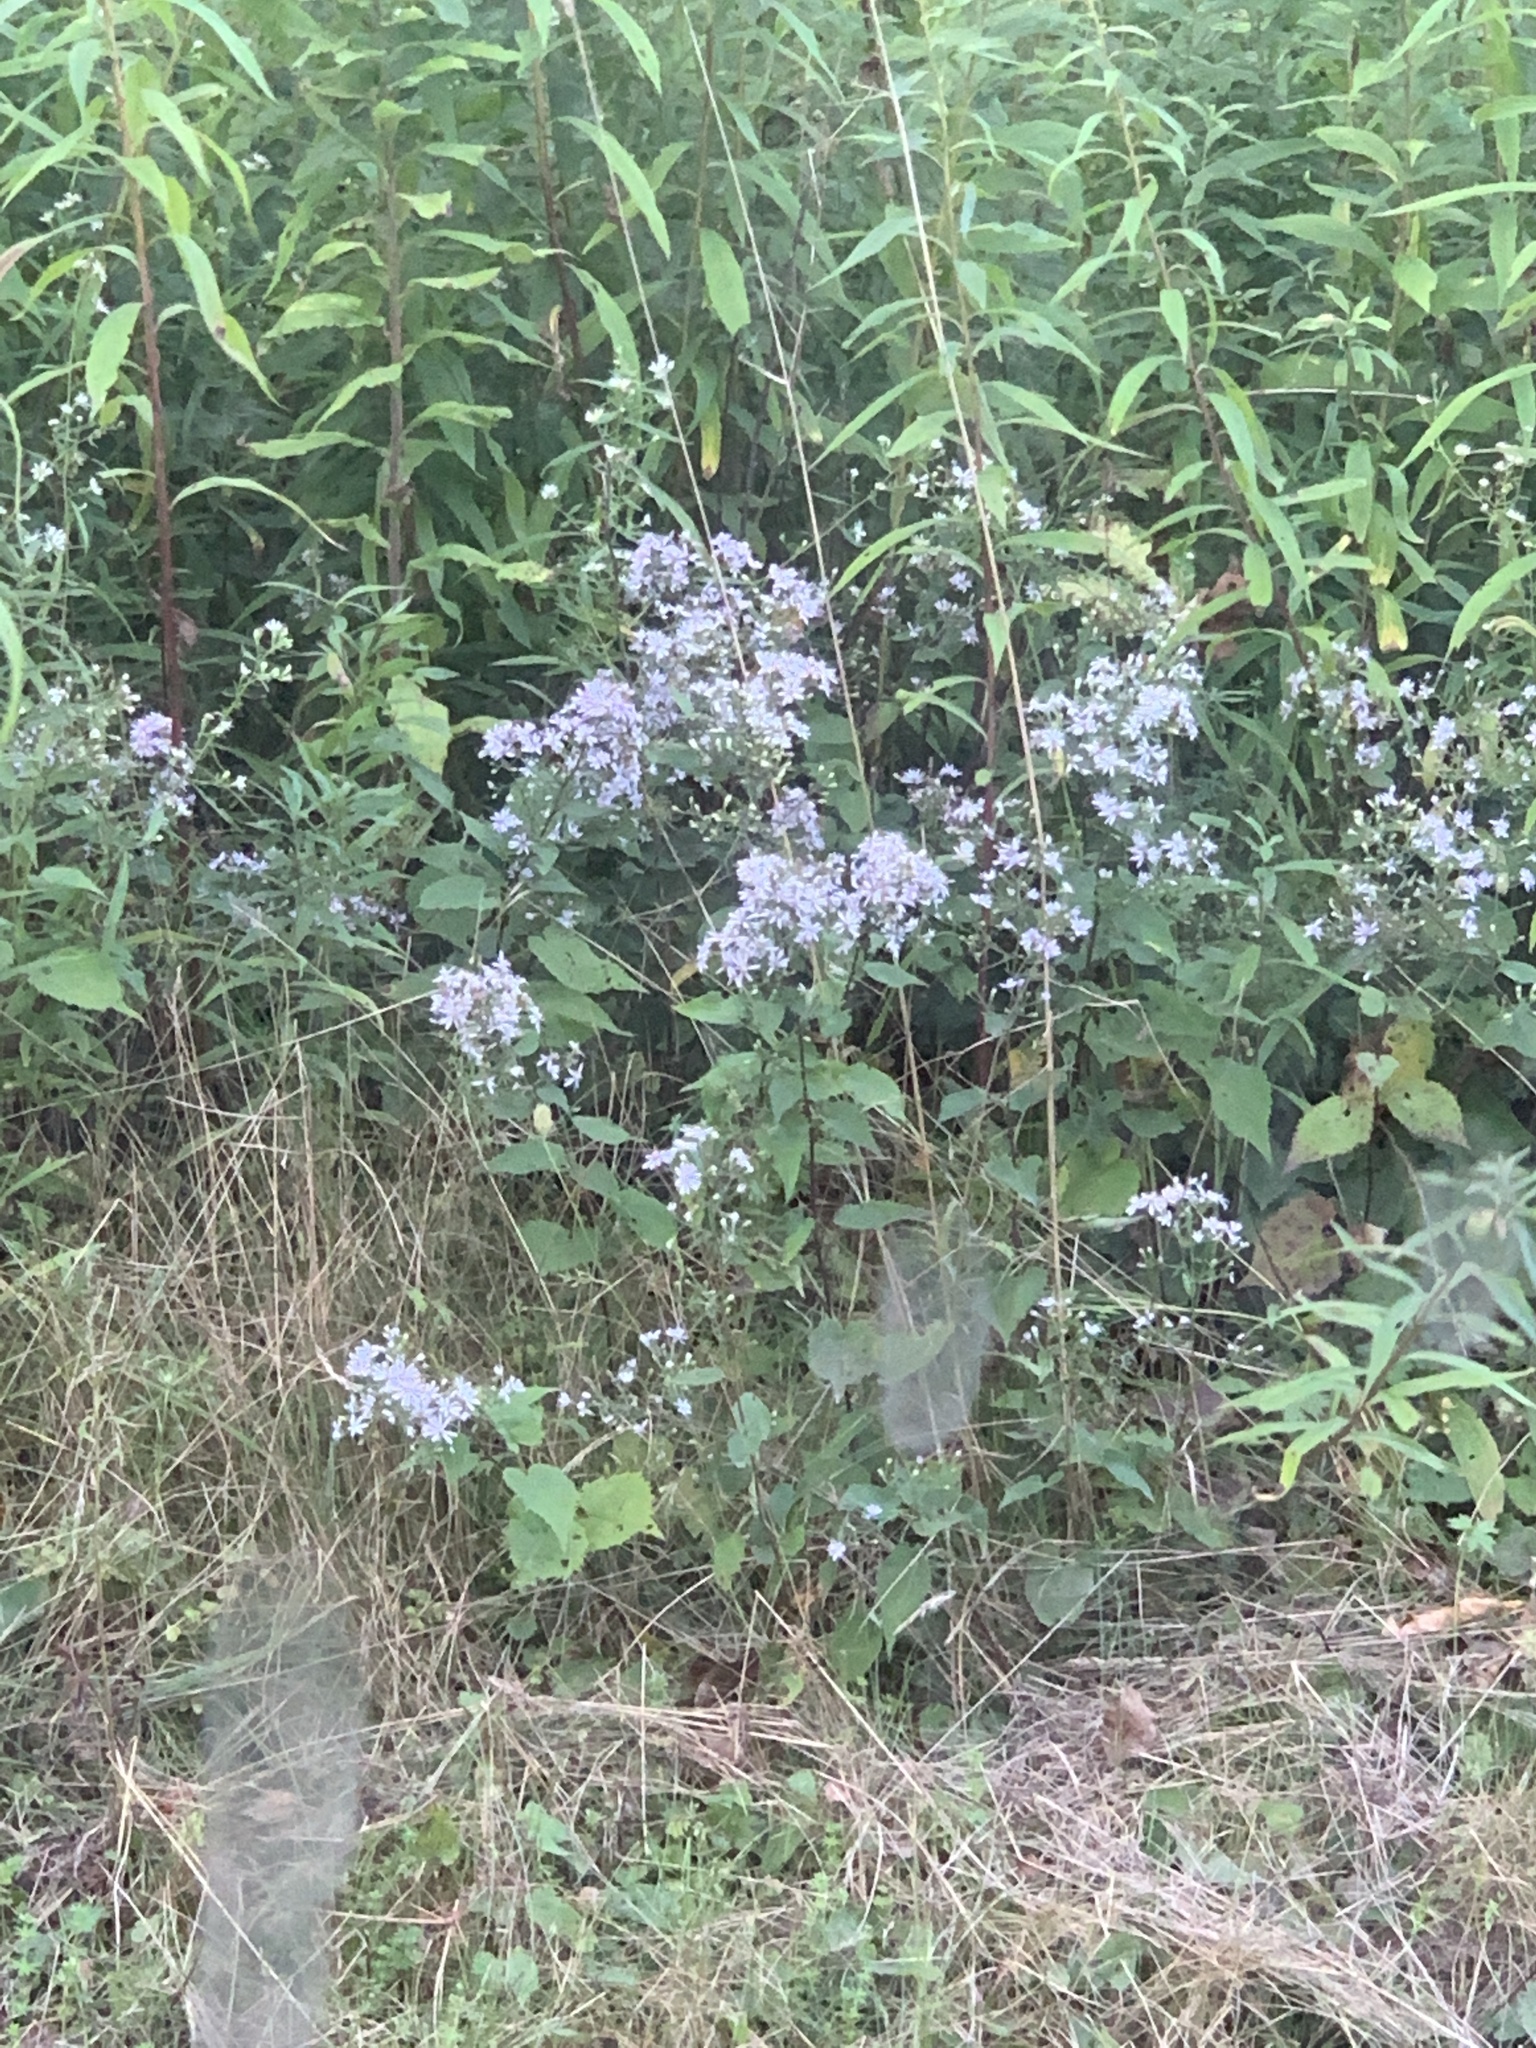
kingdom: Plantae
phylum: Tracheophyta
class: Magnoliopsida
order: Asterales
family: Asteraceae
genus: Symphyotrichum
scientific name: Symphyotrichum cordifolium
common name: Beeweed
